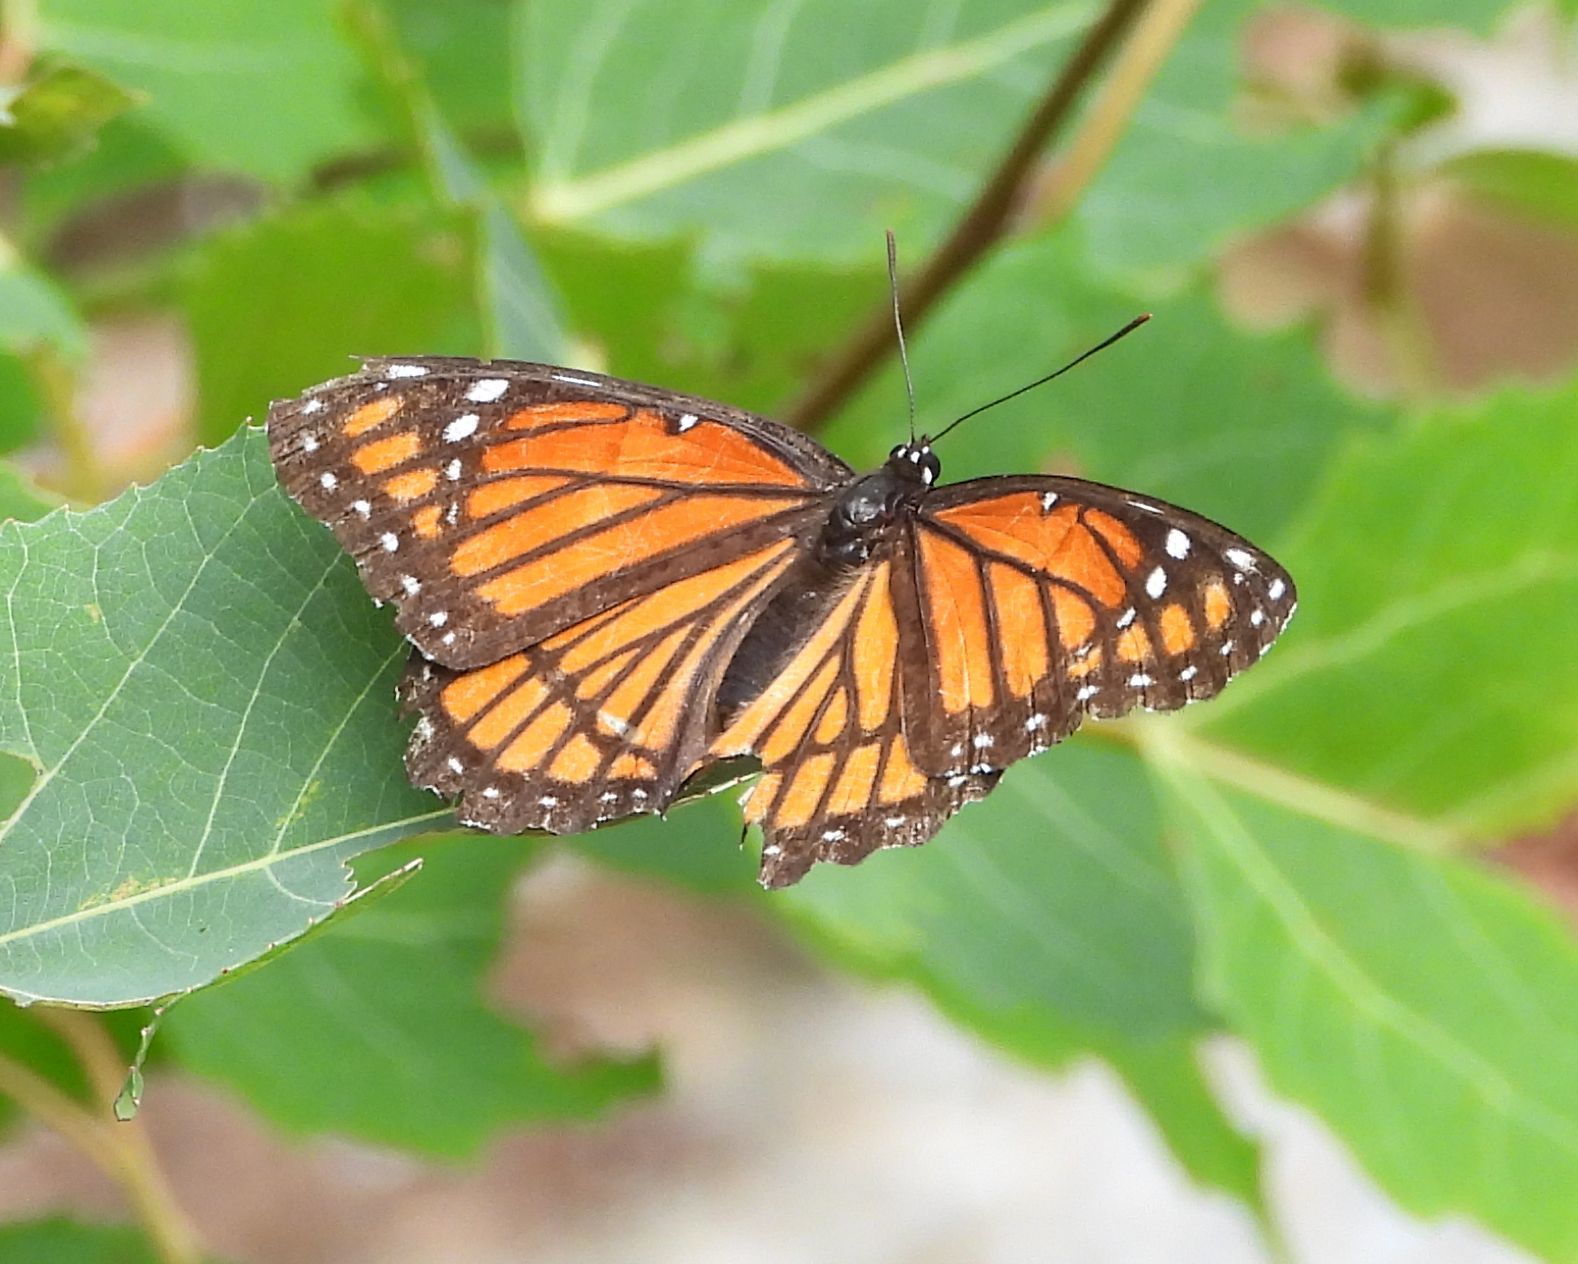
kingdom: Animalia
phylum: Arthropoda
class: Insecta
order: Lepidoptera
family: Nymphalidae
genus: Limenitis
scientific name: Limenitis archippus
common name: Viceroy
